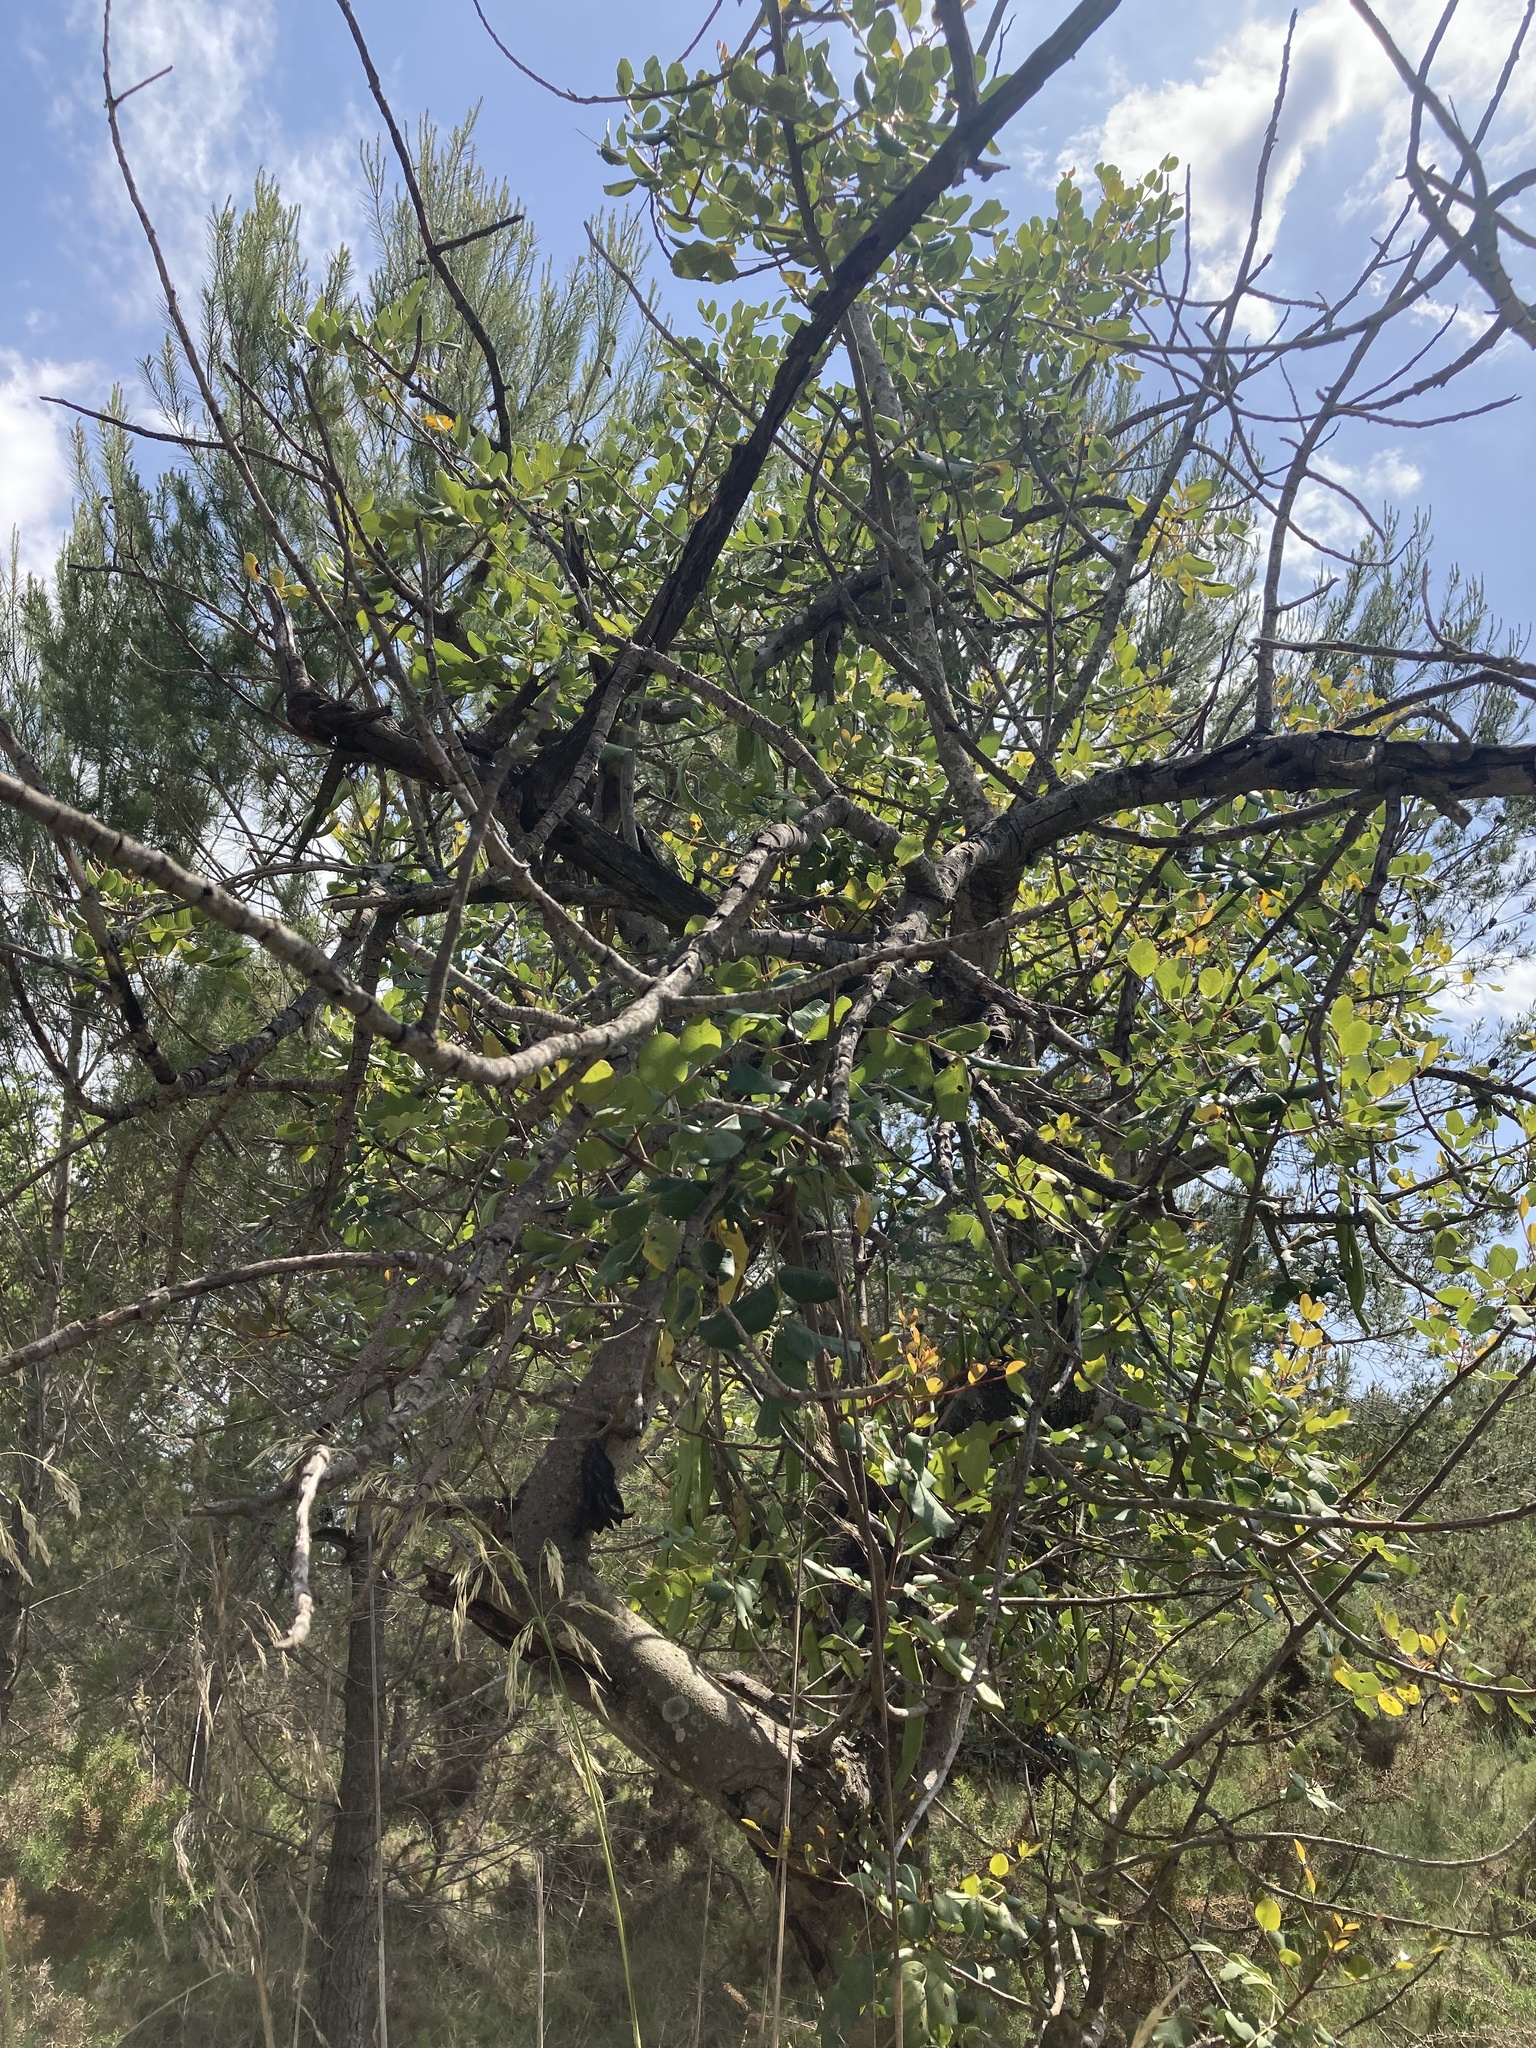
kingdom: Plantae
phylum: Tracheophyta
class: Magnoliopsida
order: Fabales
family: Fabaceae
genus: Ceratonia
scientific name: Ceratonia siliqua
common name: Carob
